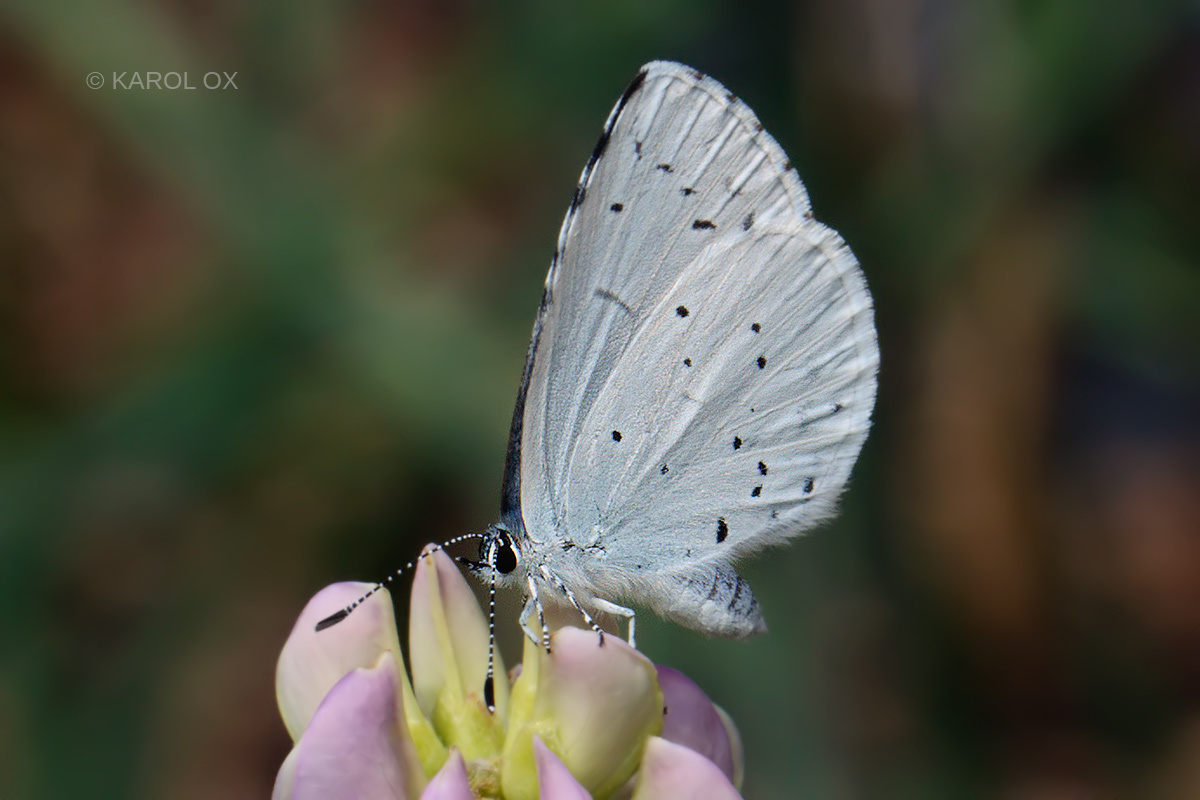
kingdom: Animalia
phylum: Arthropoda
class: Insecta
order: Lepidoptera
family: Lycaenidae
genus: Celastrina
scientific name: Celastrina argiolus
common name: Holly blue
